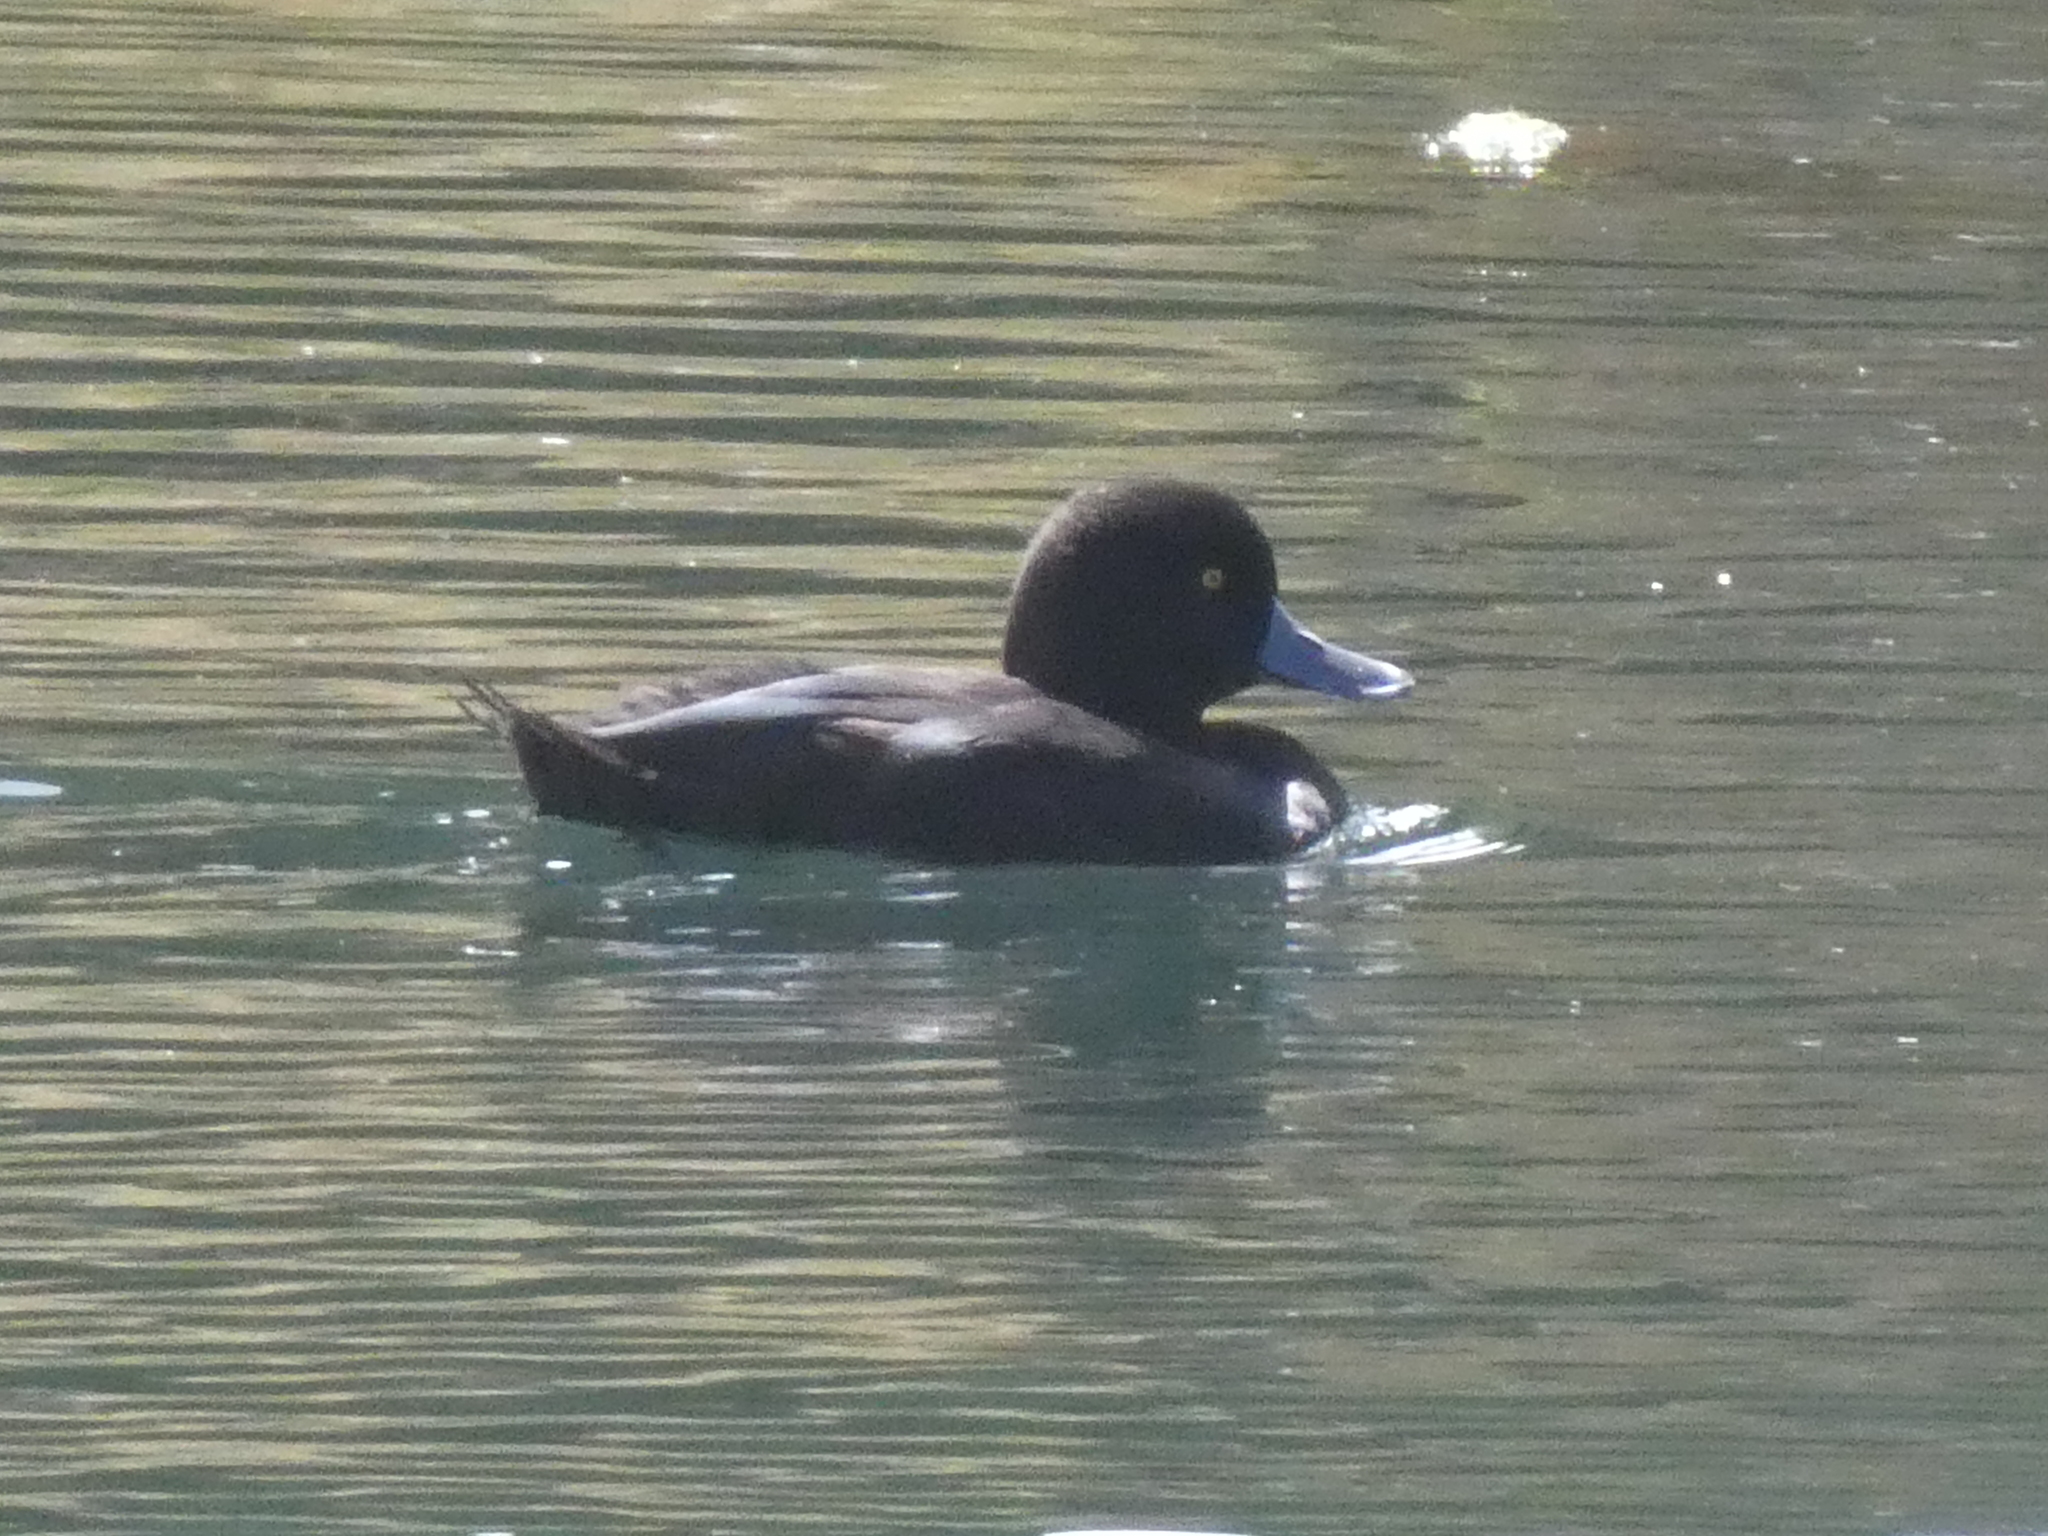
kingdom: Animalia
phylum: Chordata
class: Aves
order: Anseriformes
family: Anatidae
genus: Aythya
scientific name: Aythya novaeseelandiae
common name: New zealand scaup
